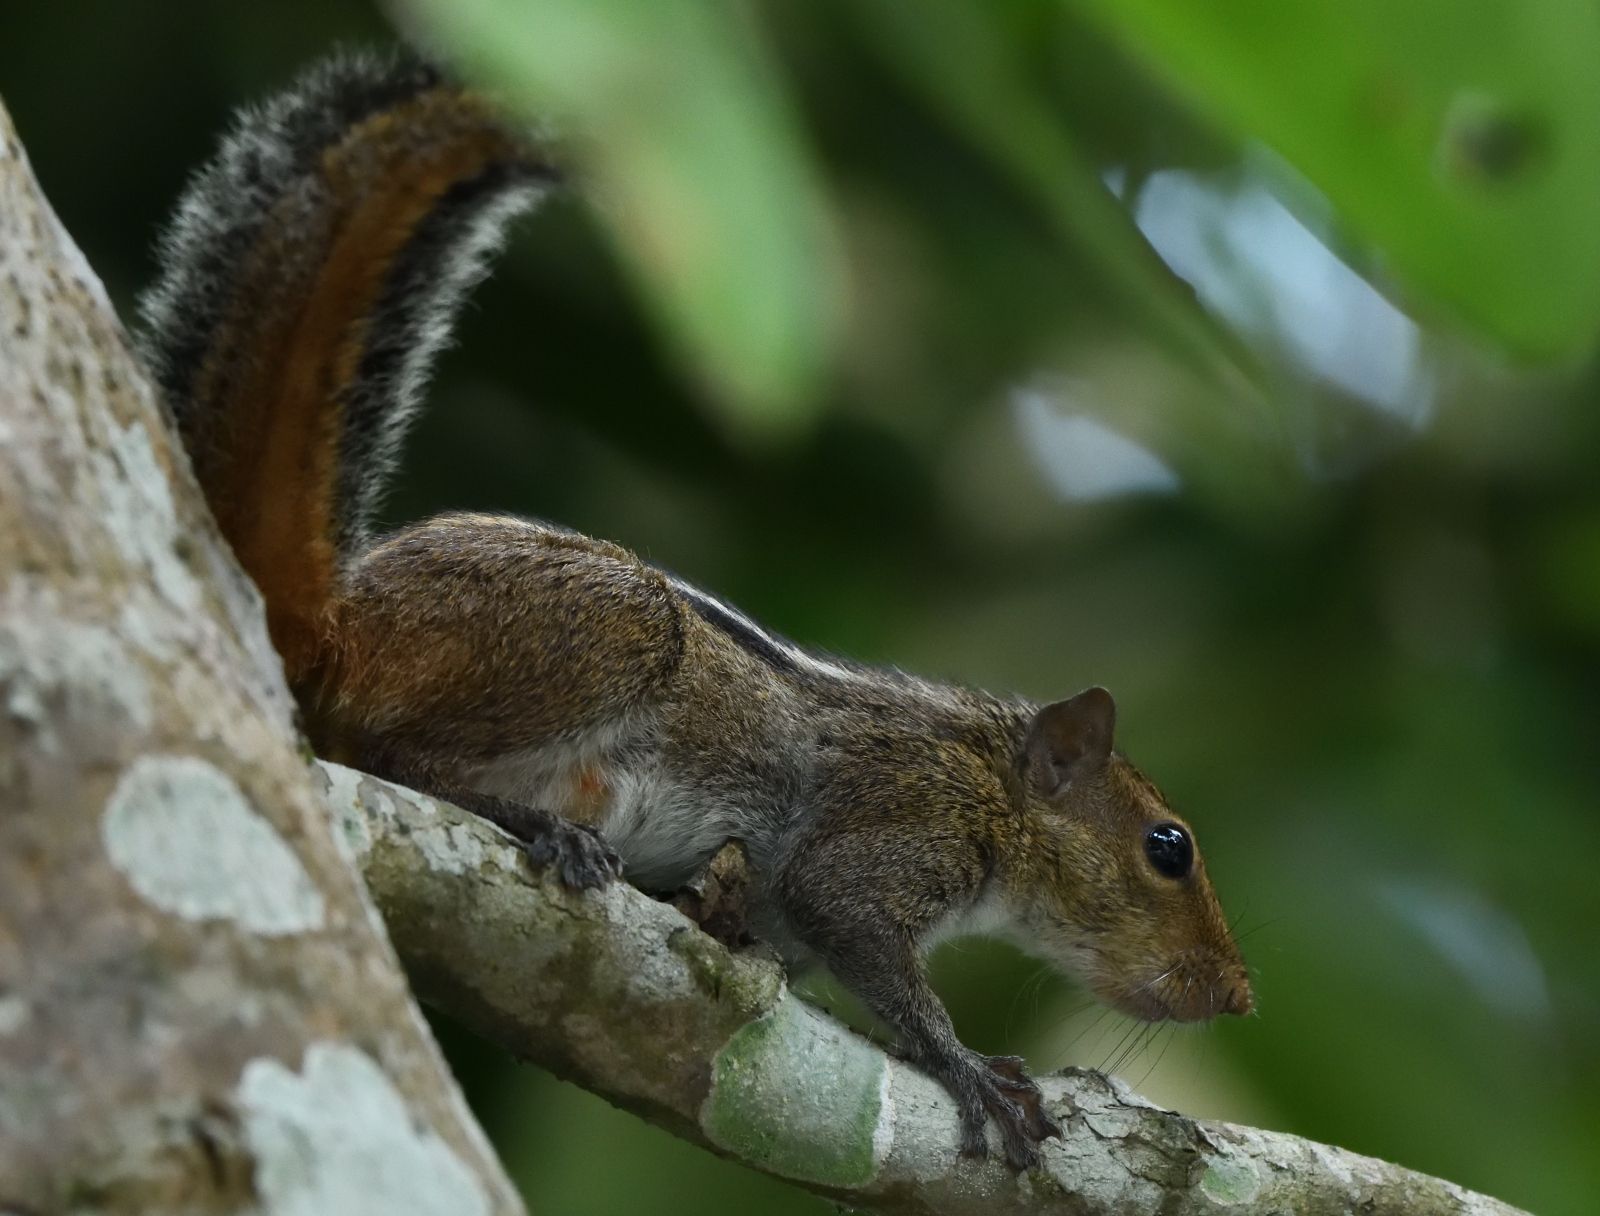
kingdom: Animalia
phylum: Chordata
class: Mammalia
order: Rodentia
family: Sciuridae
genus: Funambulus
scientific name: Funambulus tristriatus
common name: Jungle palm squirrel
